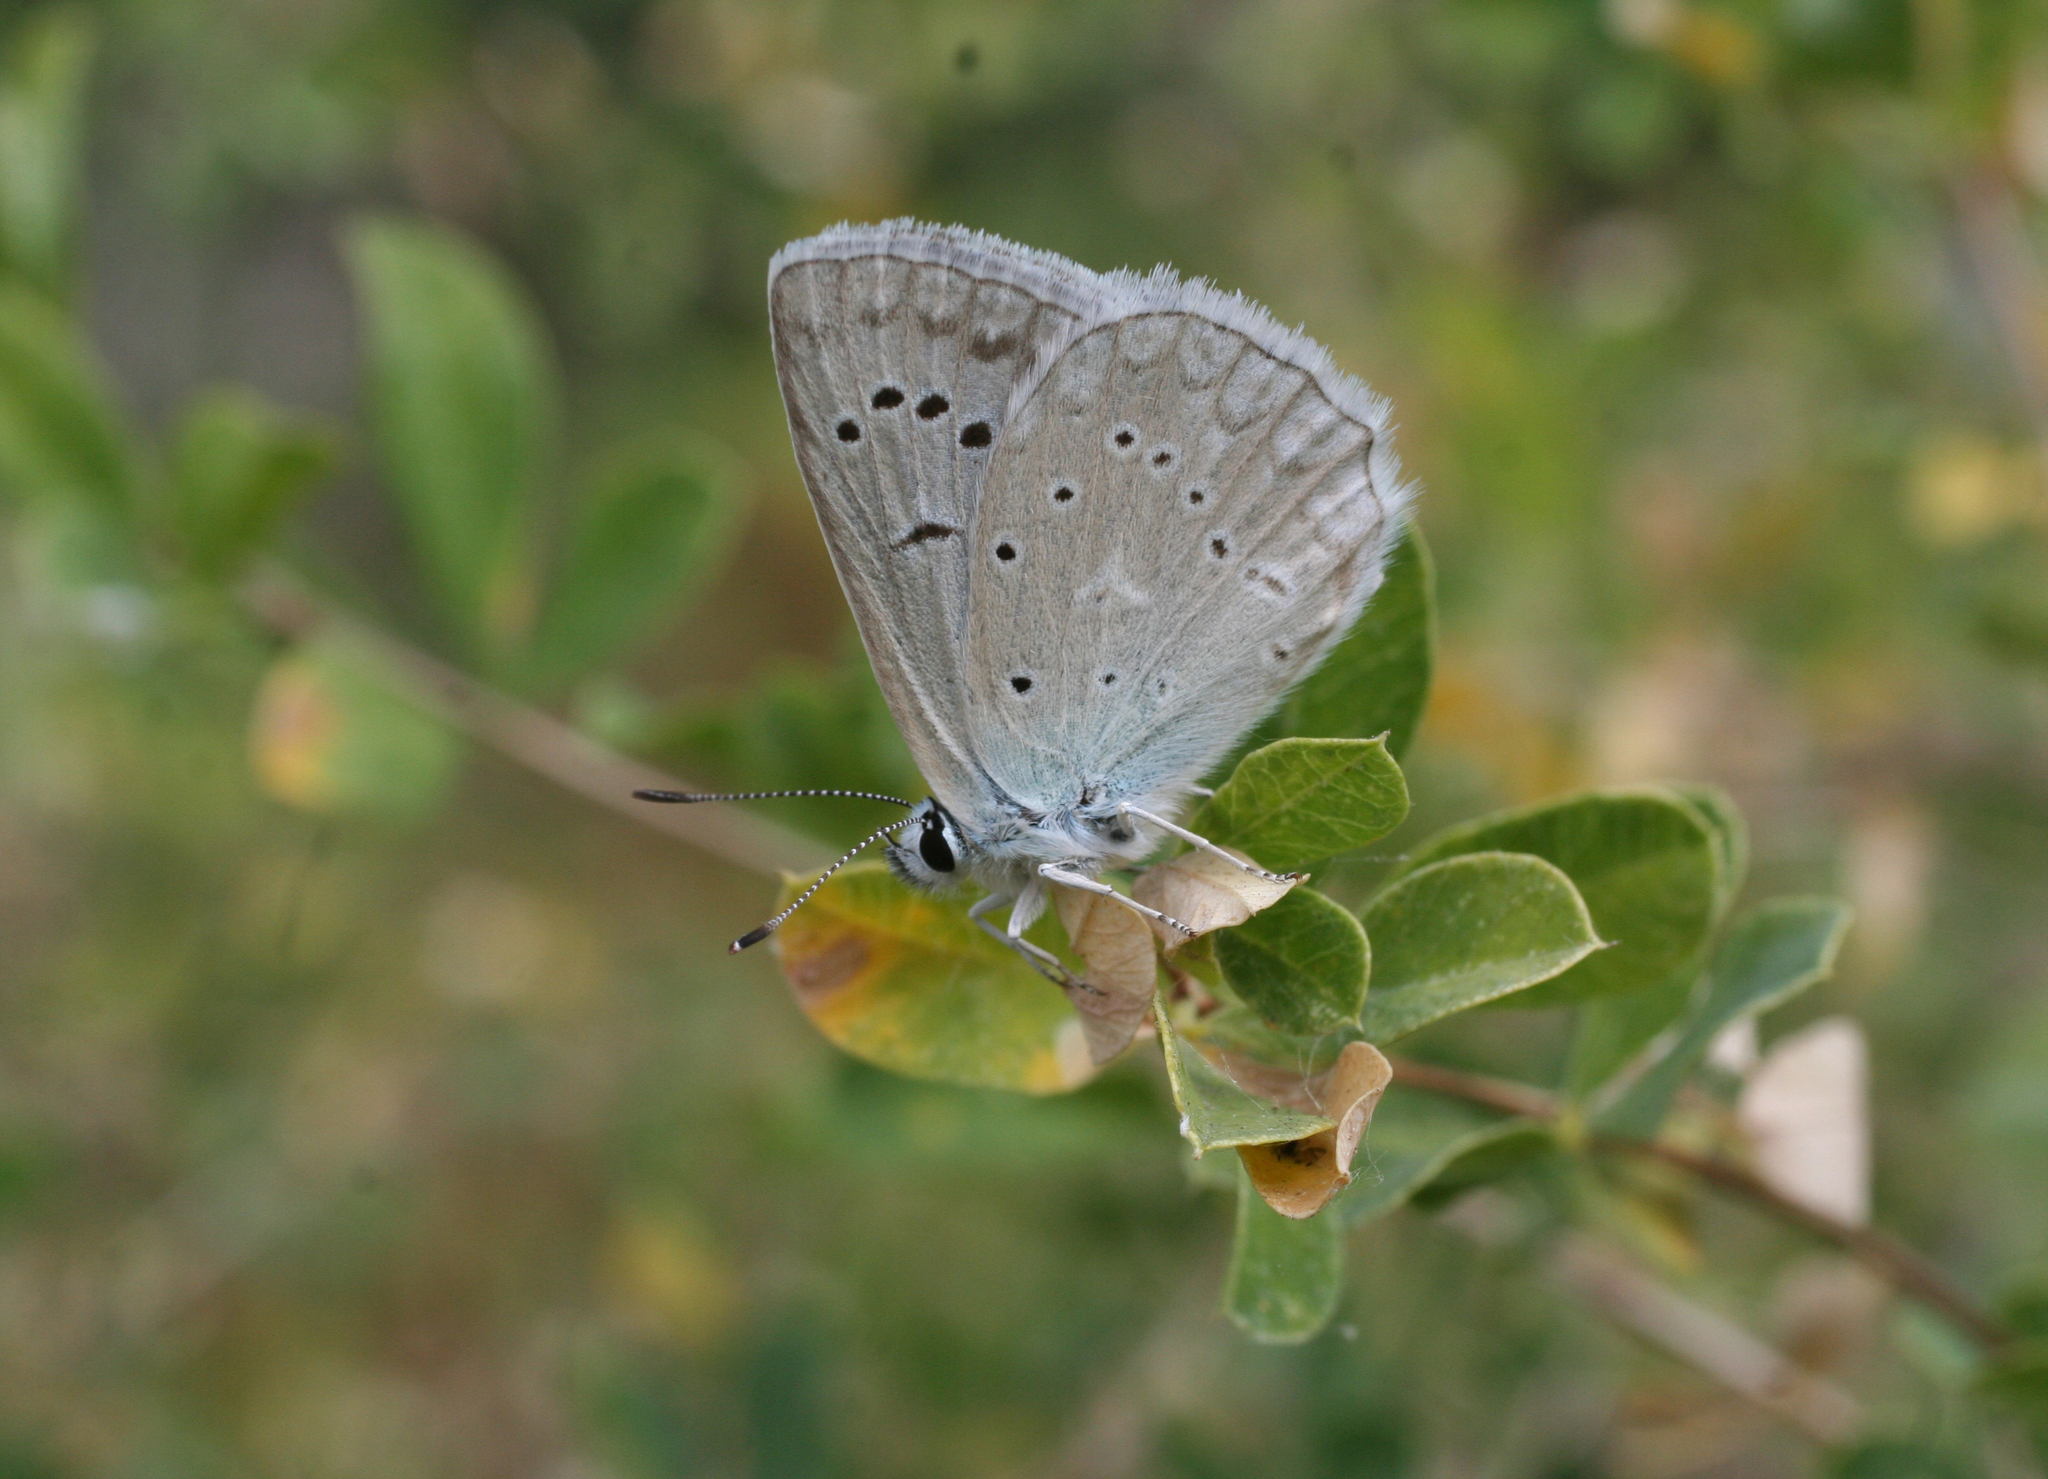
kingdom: Plantae
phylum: Tracheophyta
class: Magnoliopsida
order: Fabales
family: Fabaceae
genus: Caragana
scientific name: Caragana frutex
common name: Russian peashrub
